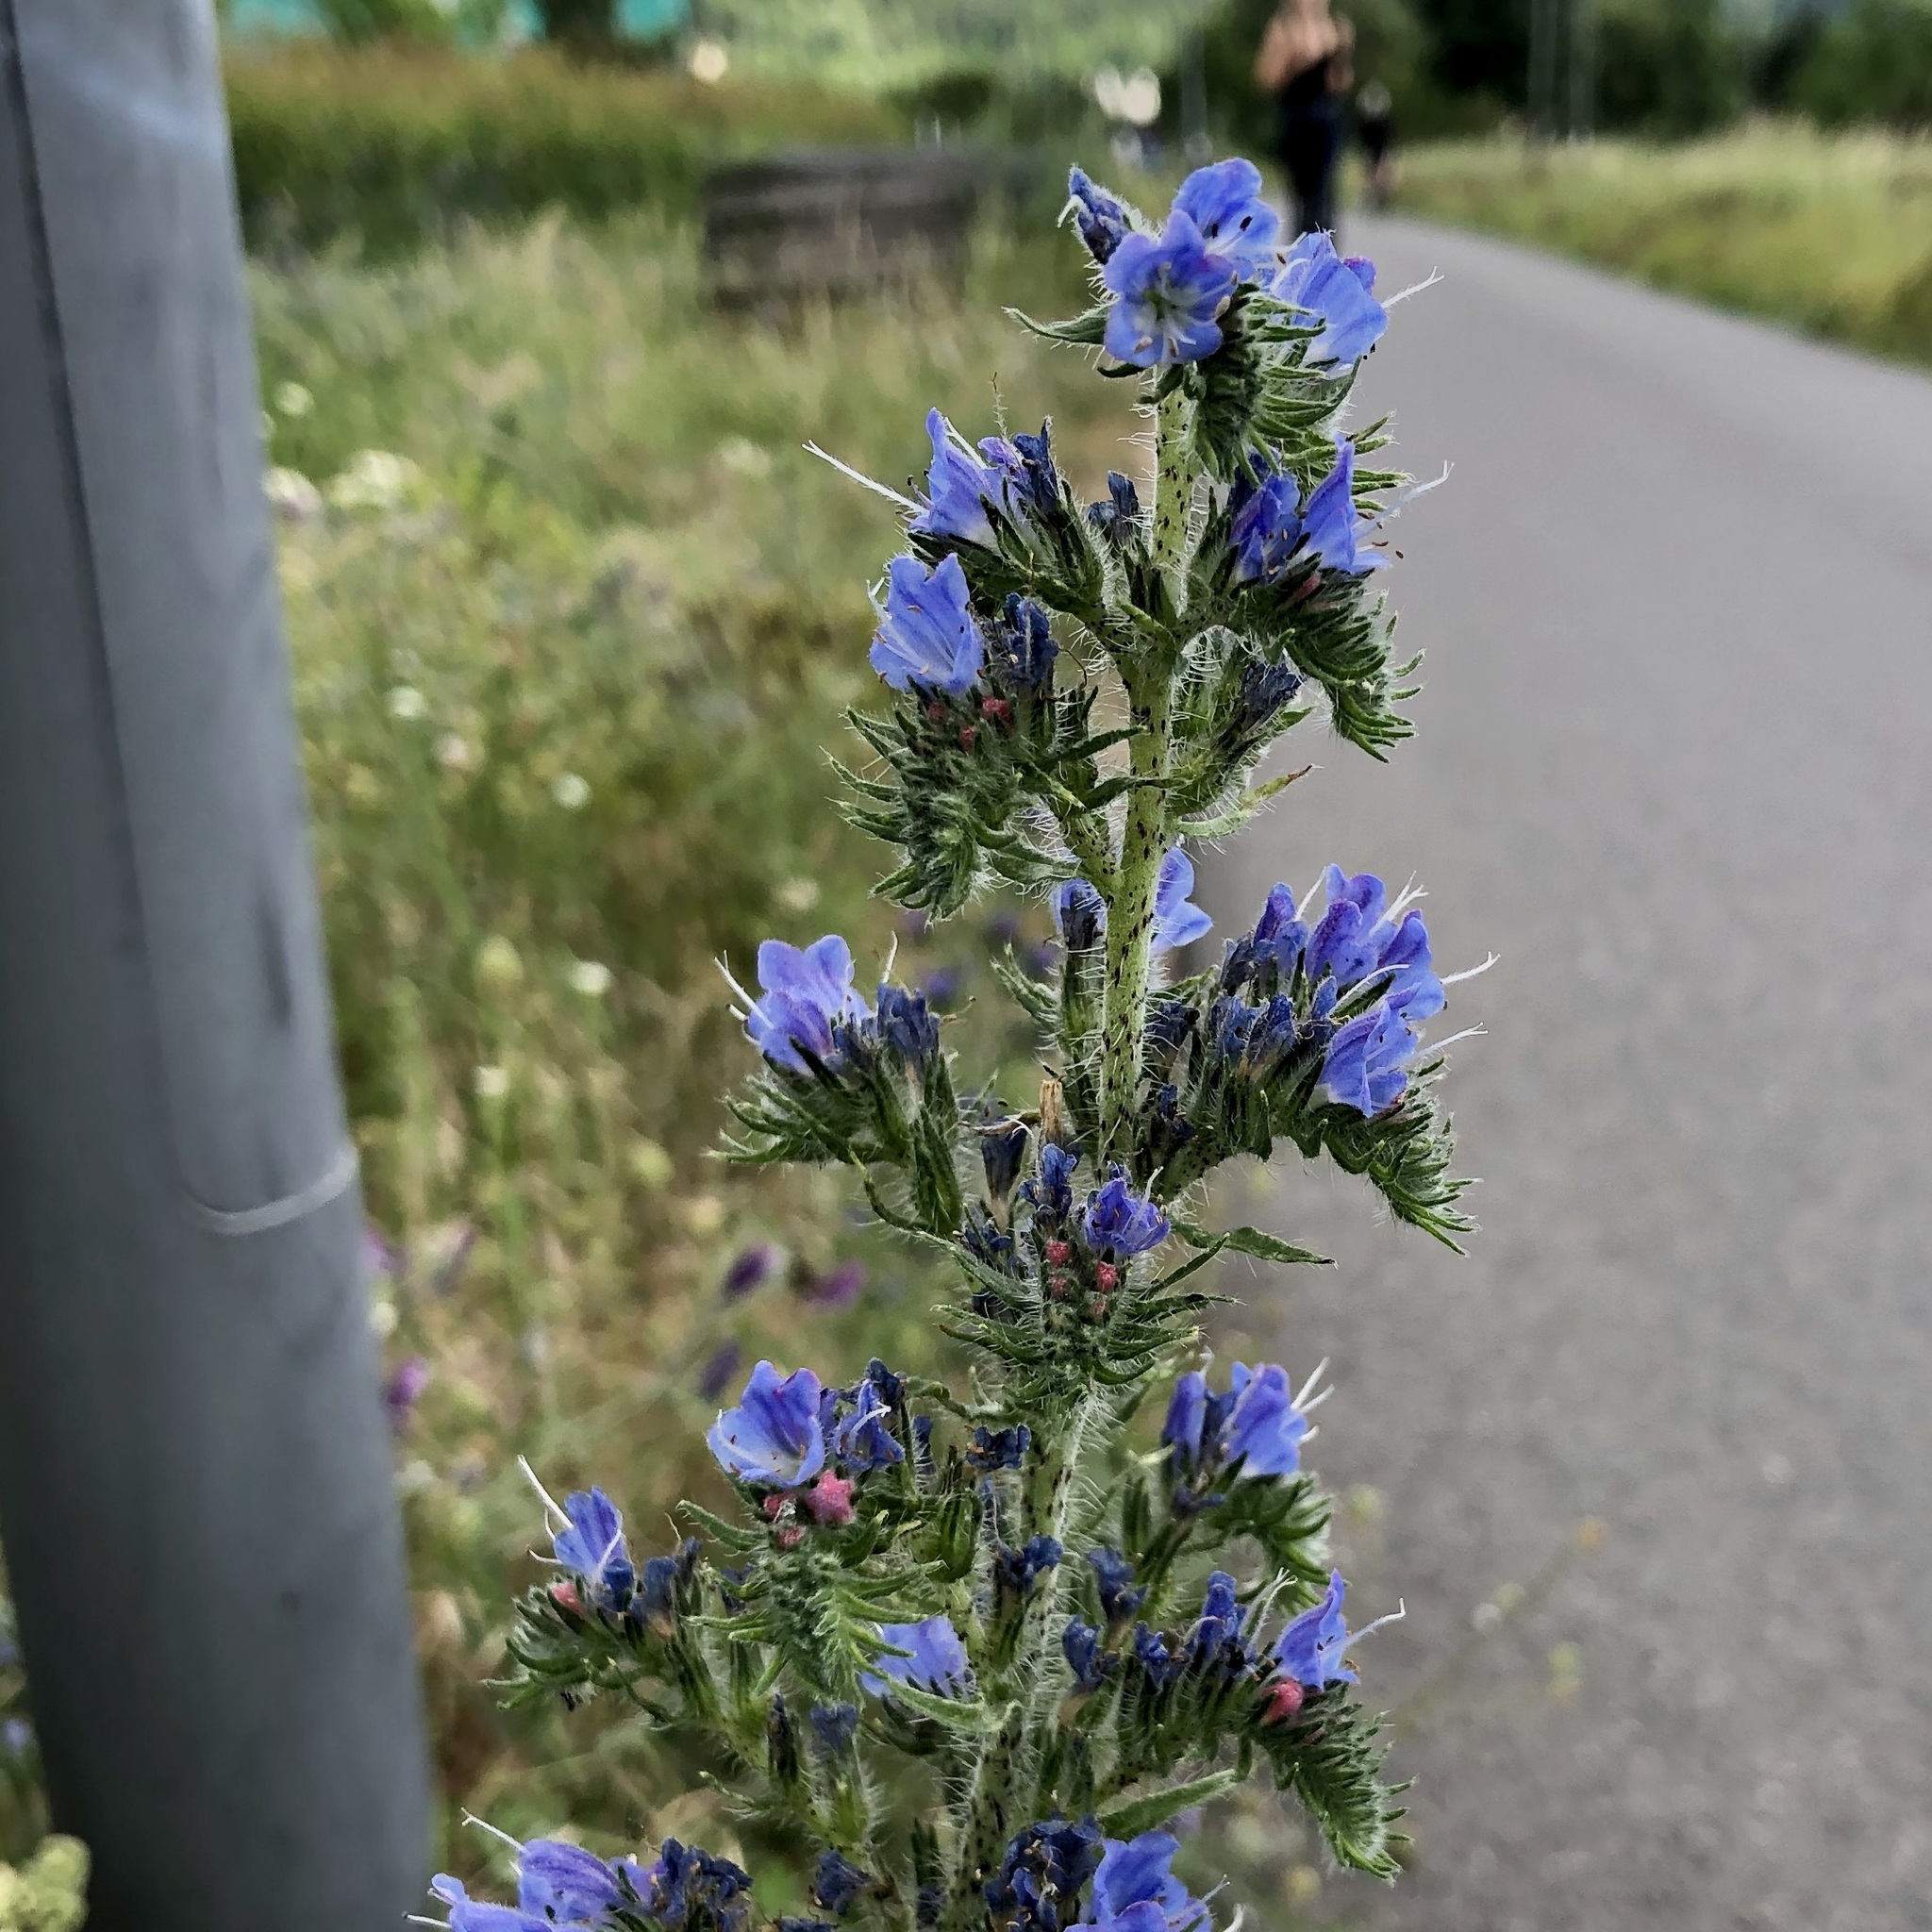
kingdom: Plantae
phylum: Tracheophyta
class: Magnoliopsida
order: Boraginales
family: Boraginaceae
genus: Echium
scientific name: Echium vulgare
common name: Common viper's bugloss
